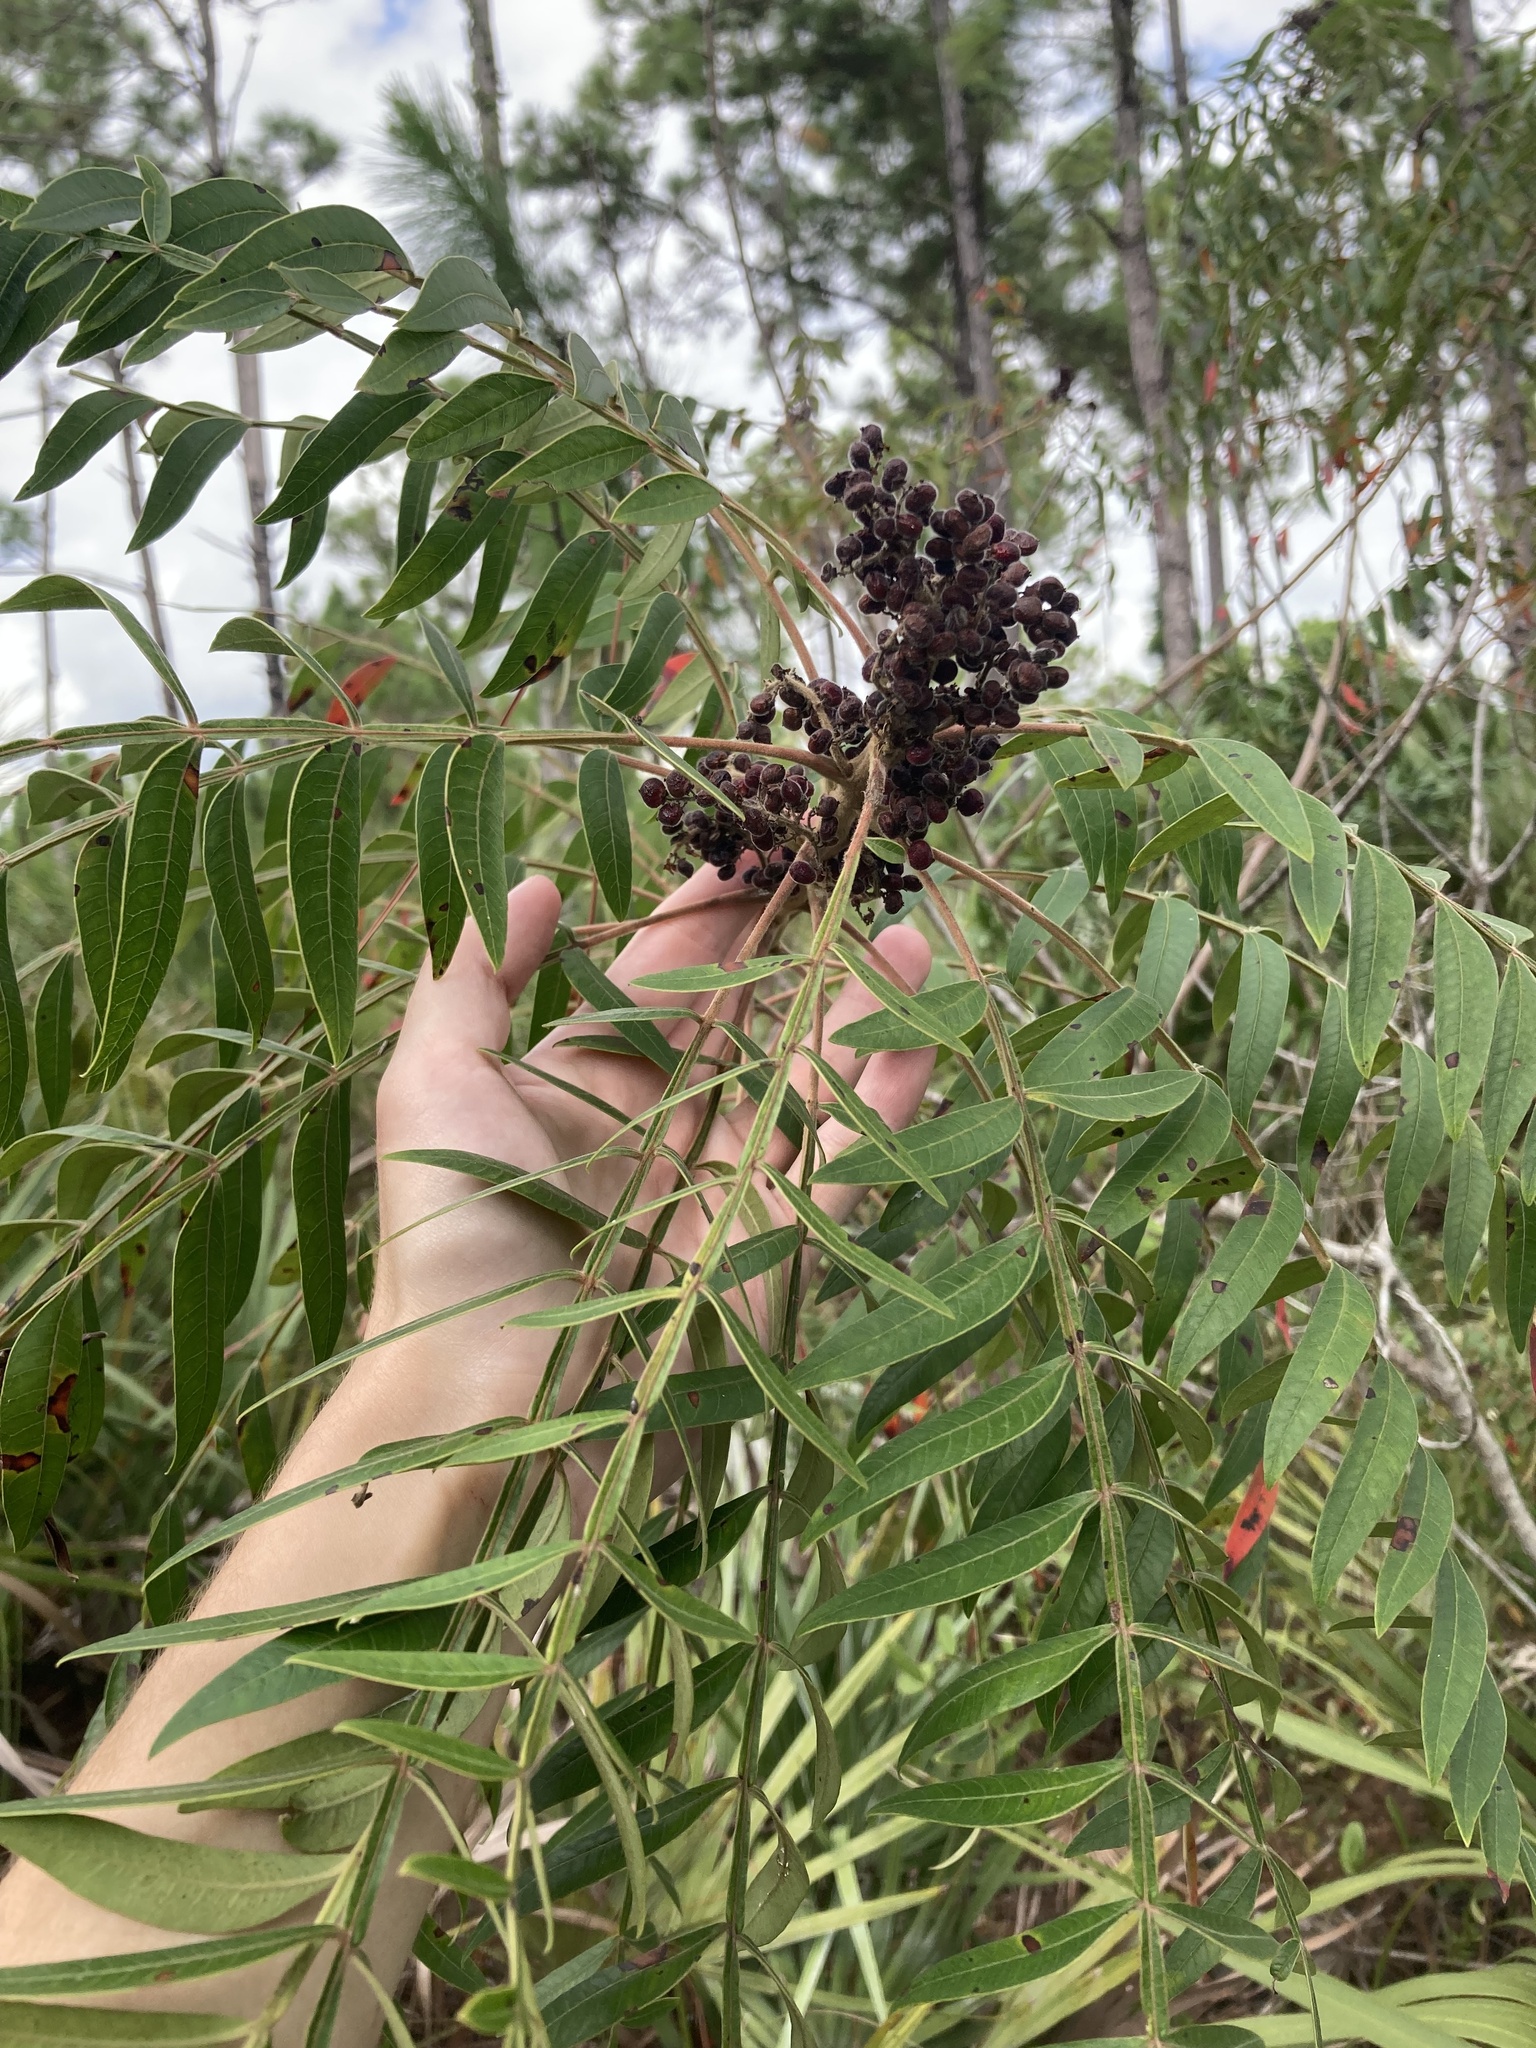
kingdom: Plantae
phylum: Tracheophyta
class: Magnoliopsida
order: Sapindales
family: Anacardiaceae
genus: Rhus
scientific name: Rhus copallina
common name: Shining sumac
